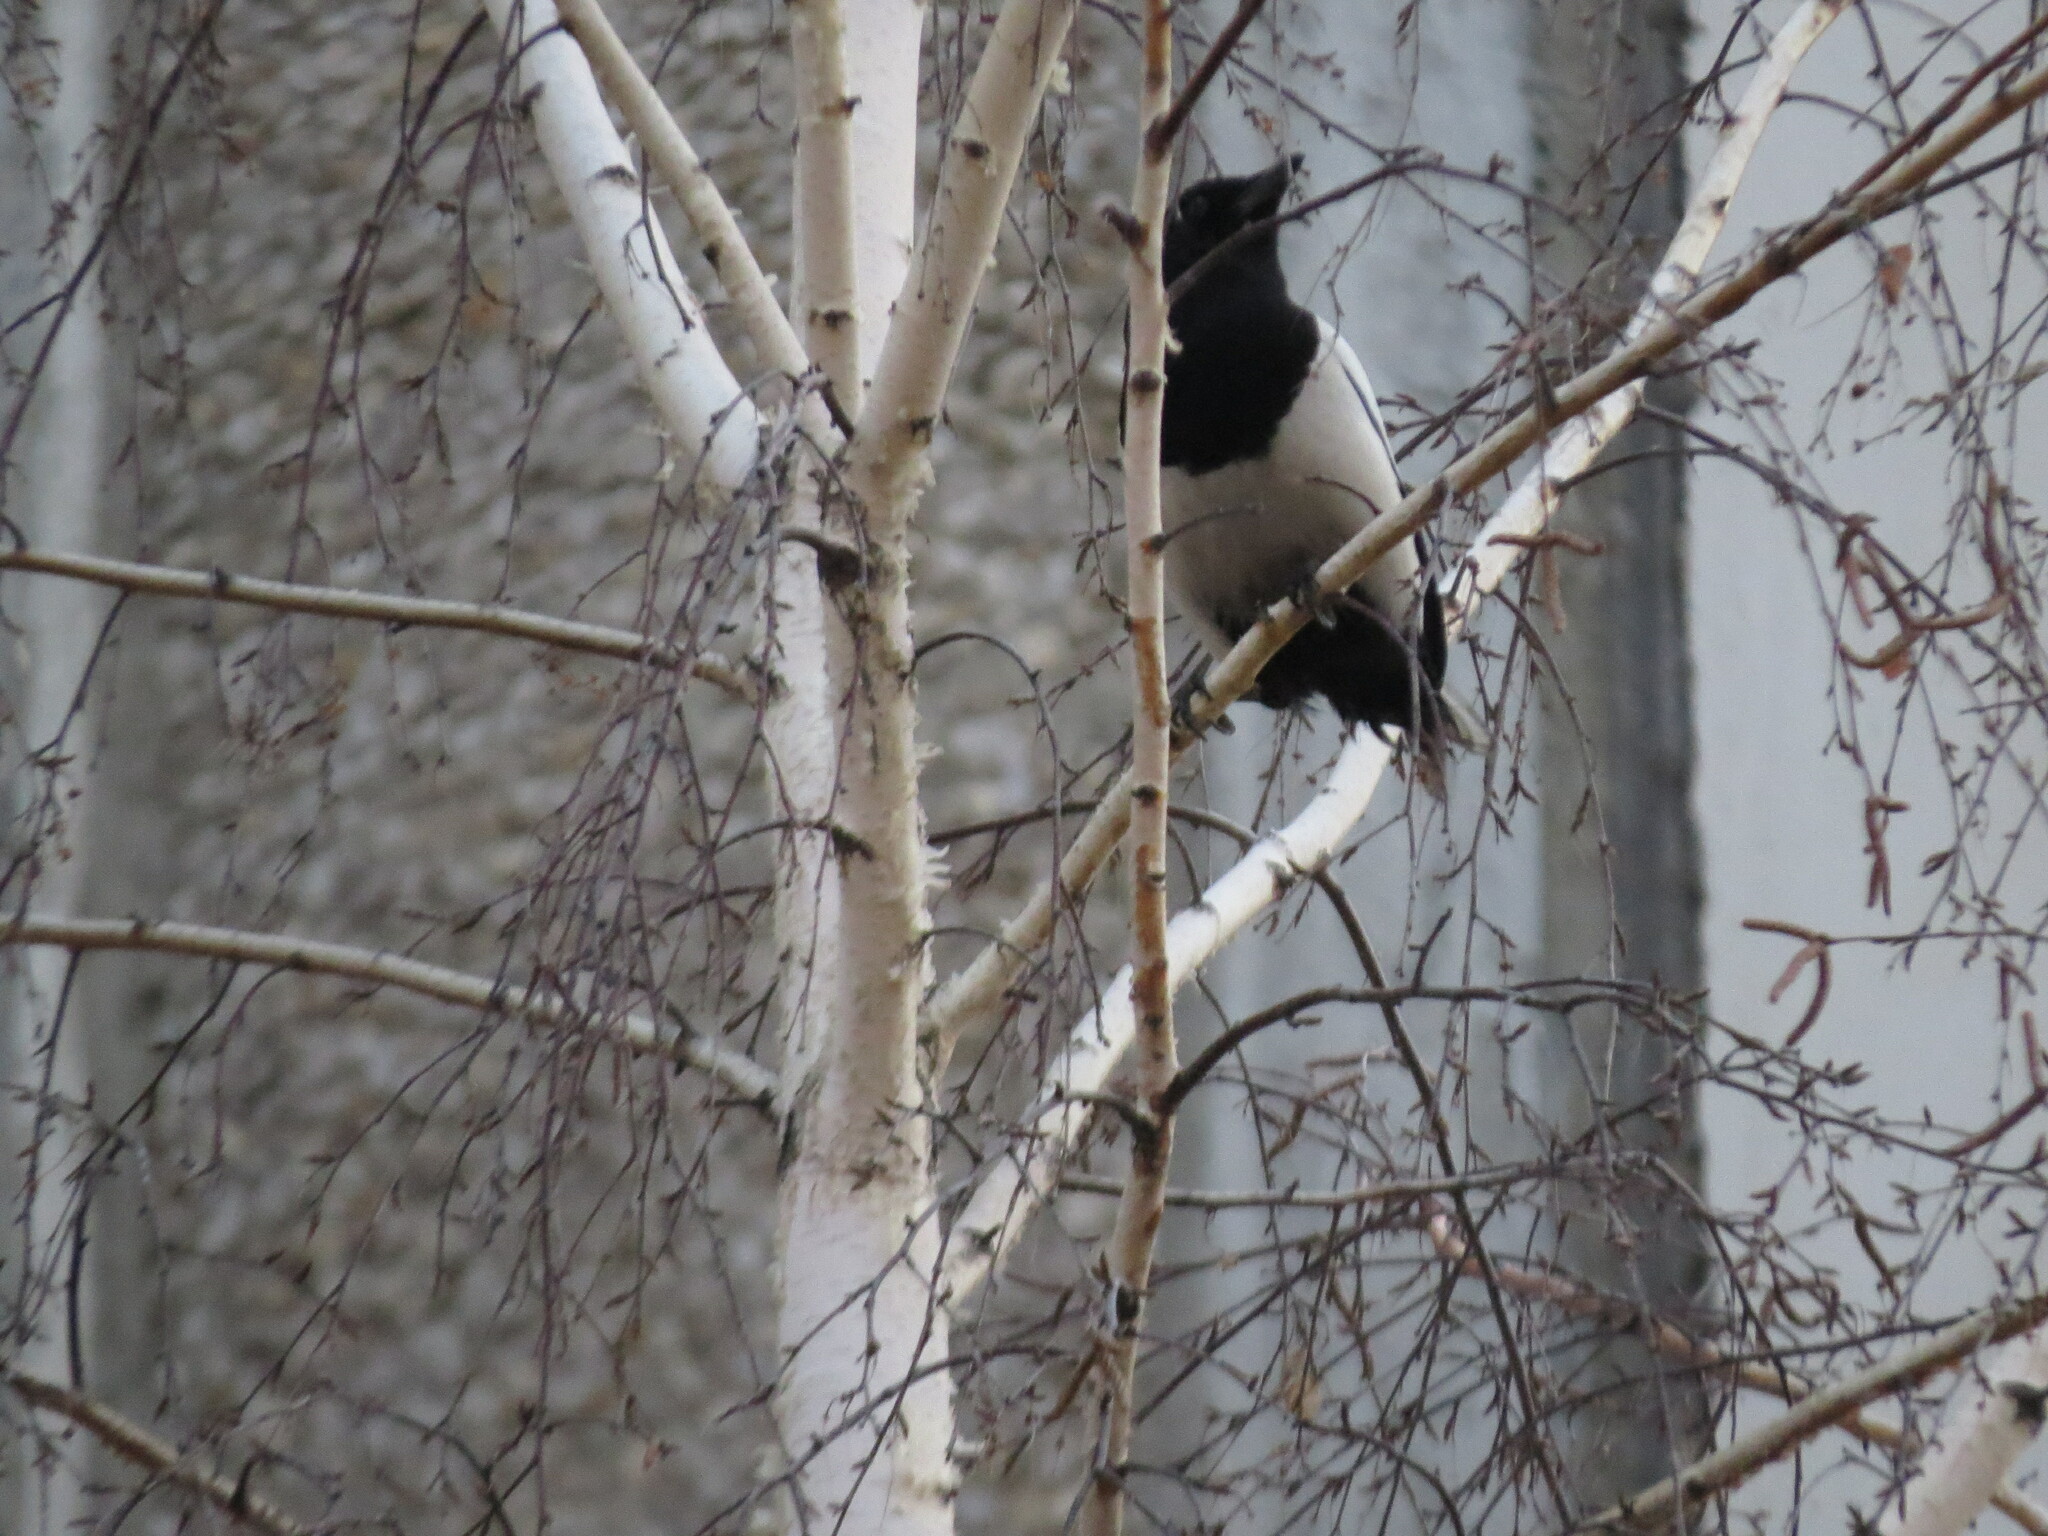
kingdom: Animalia
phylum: Chordata
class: Aves
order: Passeriformes
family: Corvidae
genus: Pica
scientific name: Pica pica
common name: Eurasian magpie
